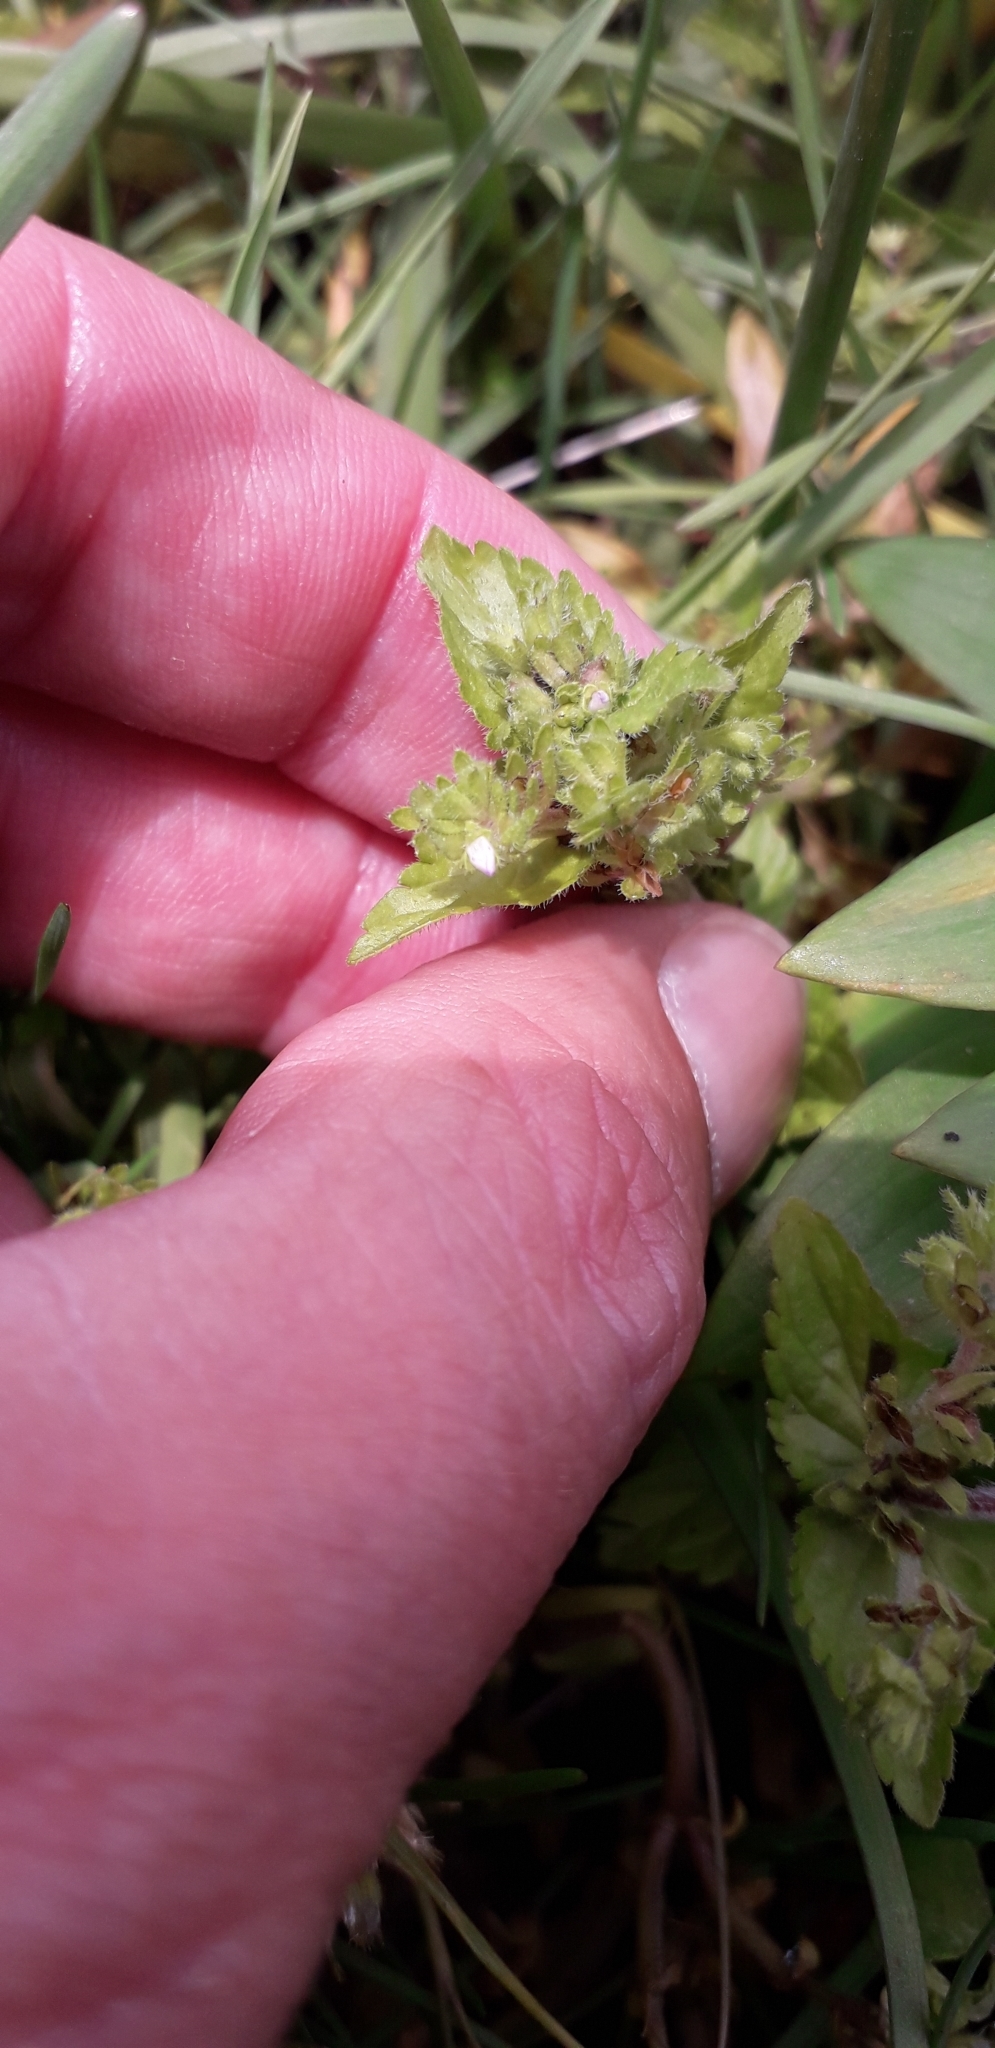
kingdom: Plantae
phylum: Tracheophyta
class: Magnoliopsida
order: Lamiales
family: Plantaginaceae
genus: Veronica
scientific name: Veronica javanica
